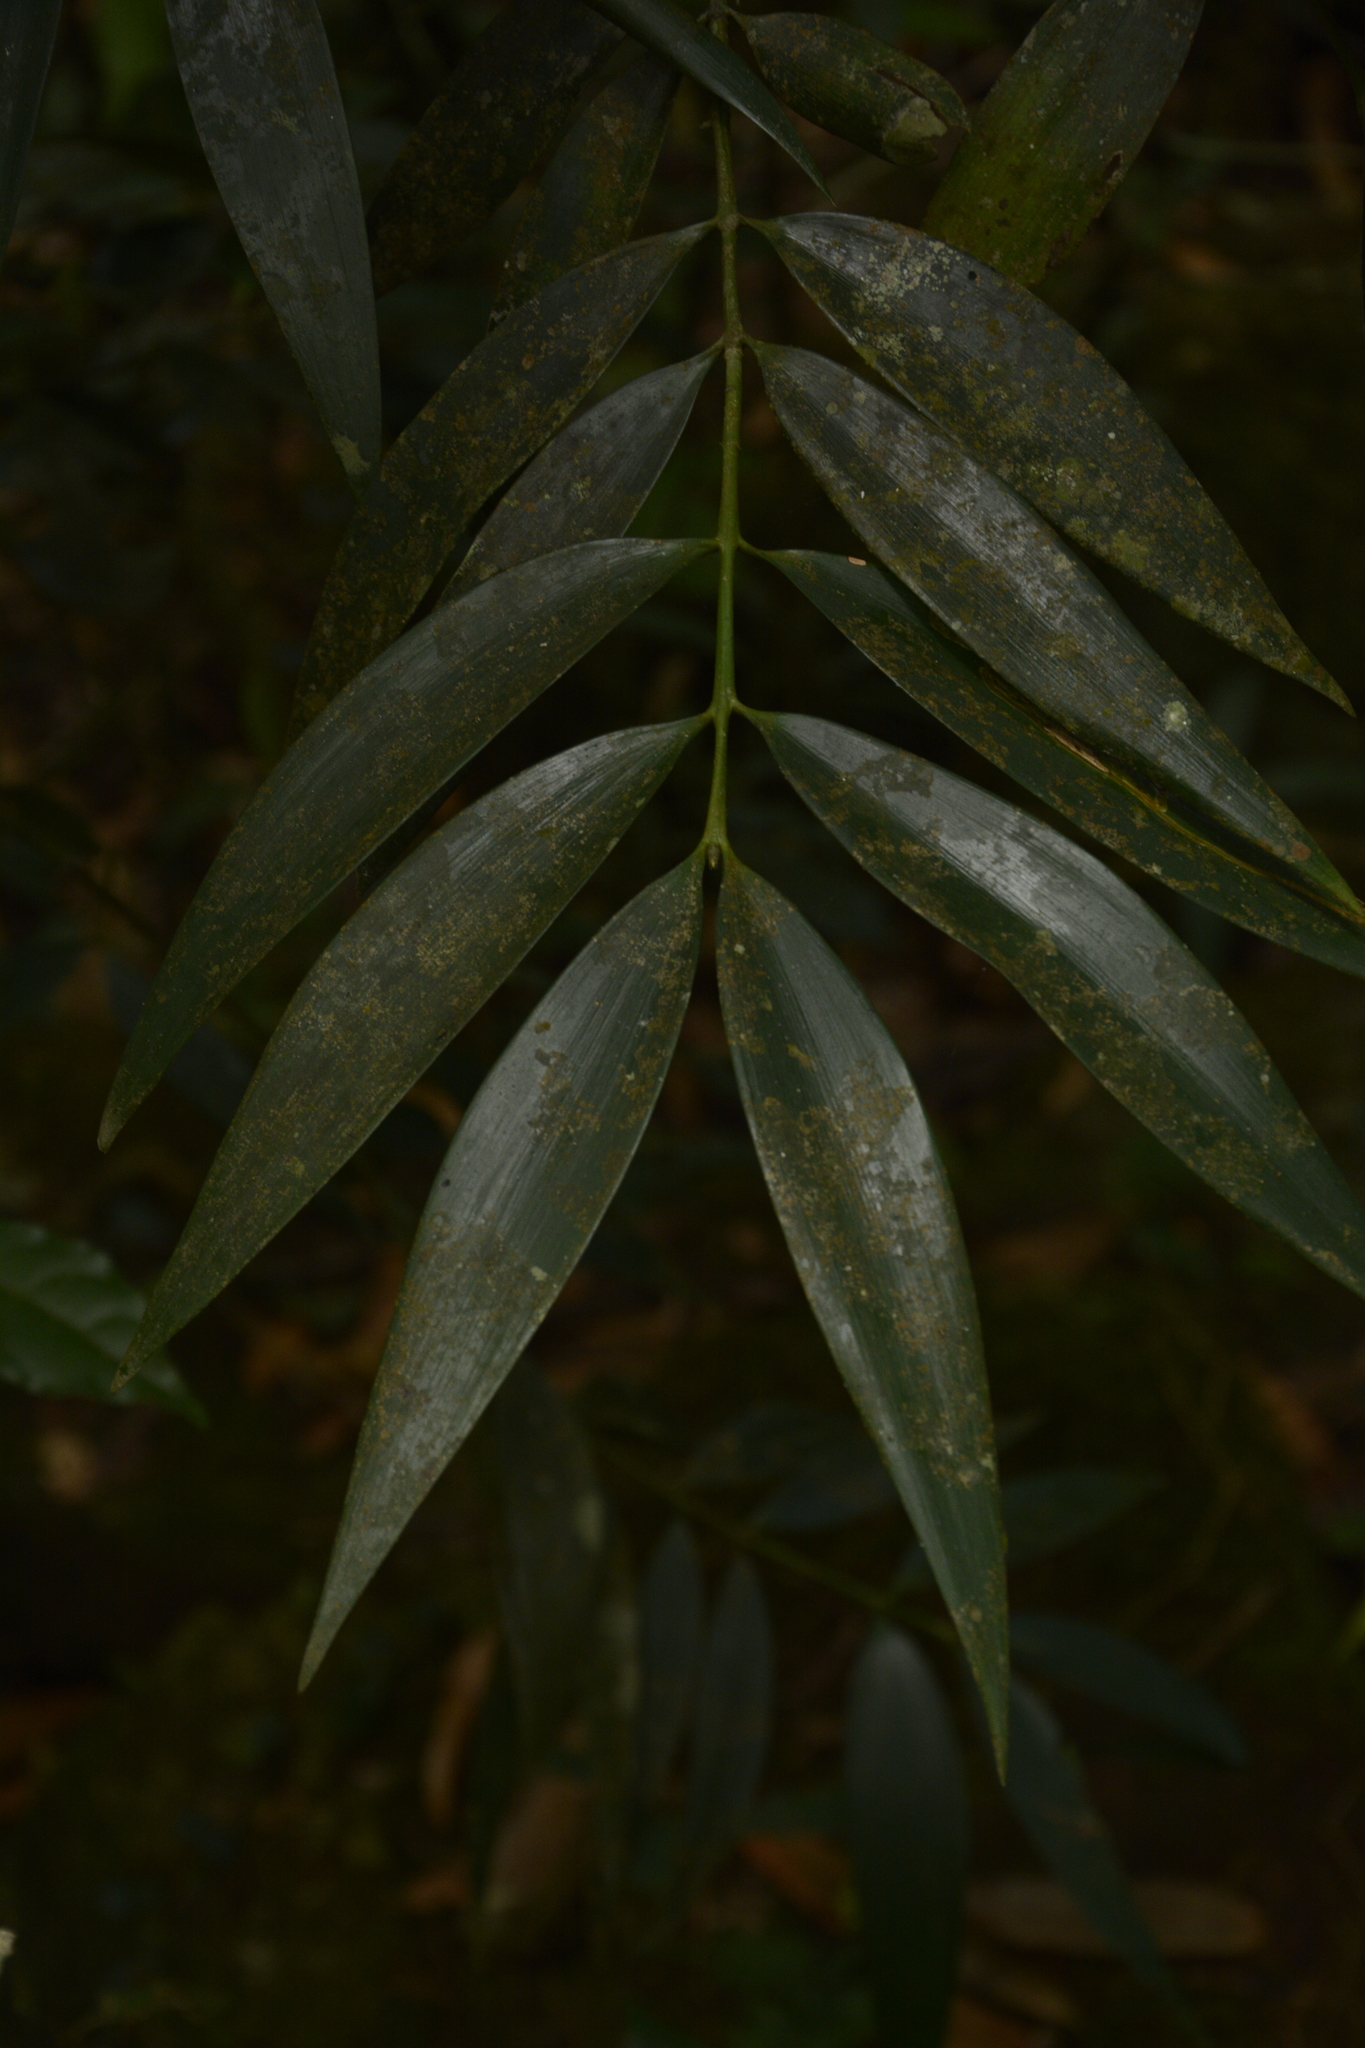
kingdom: Plantae
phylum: Tracheophyta
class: Pinopsida
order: Pinales
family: Podocarpaceae
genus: Nageia
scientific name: Nageia wallichiana
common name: Brown's-pine
